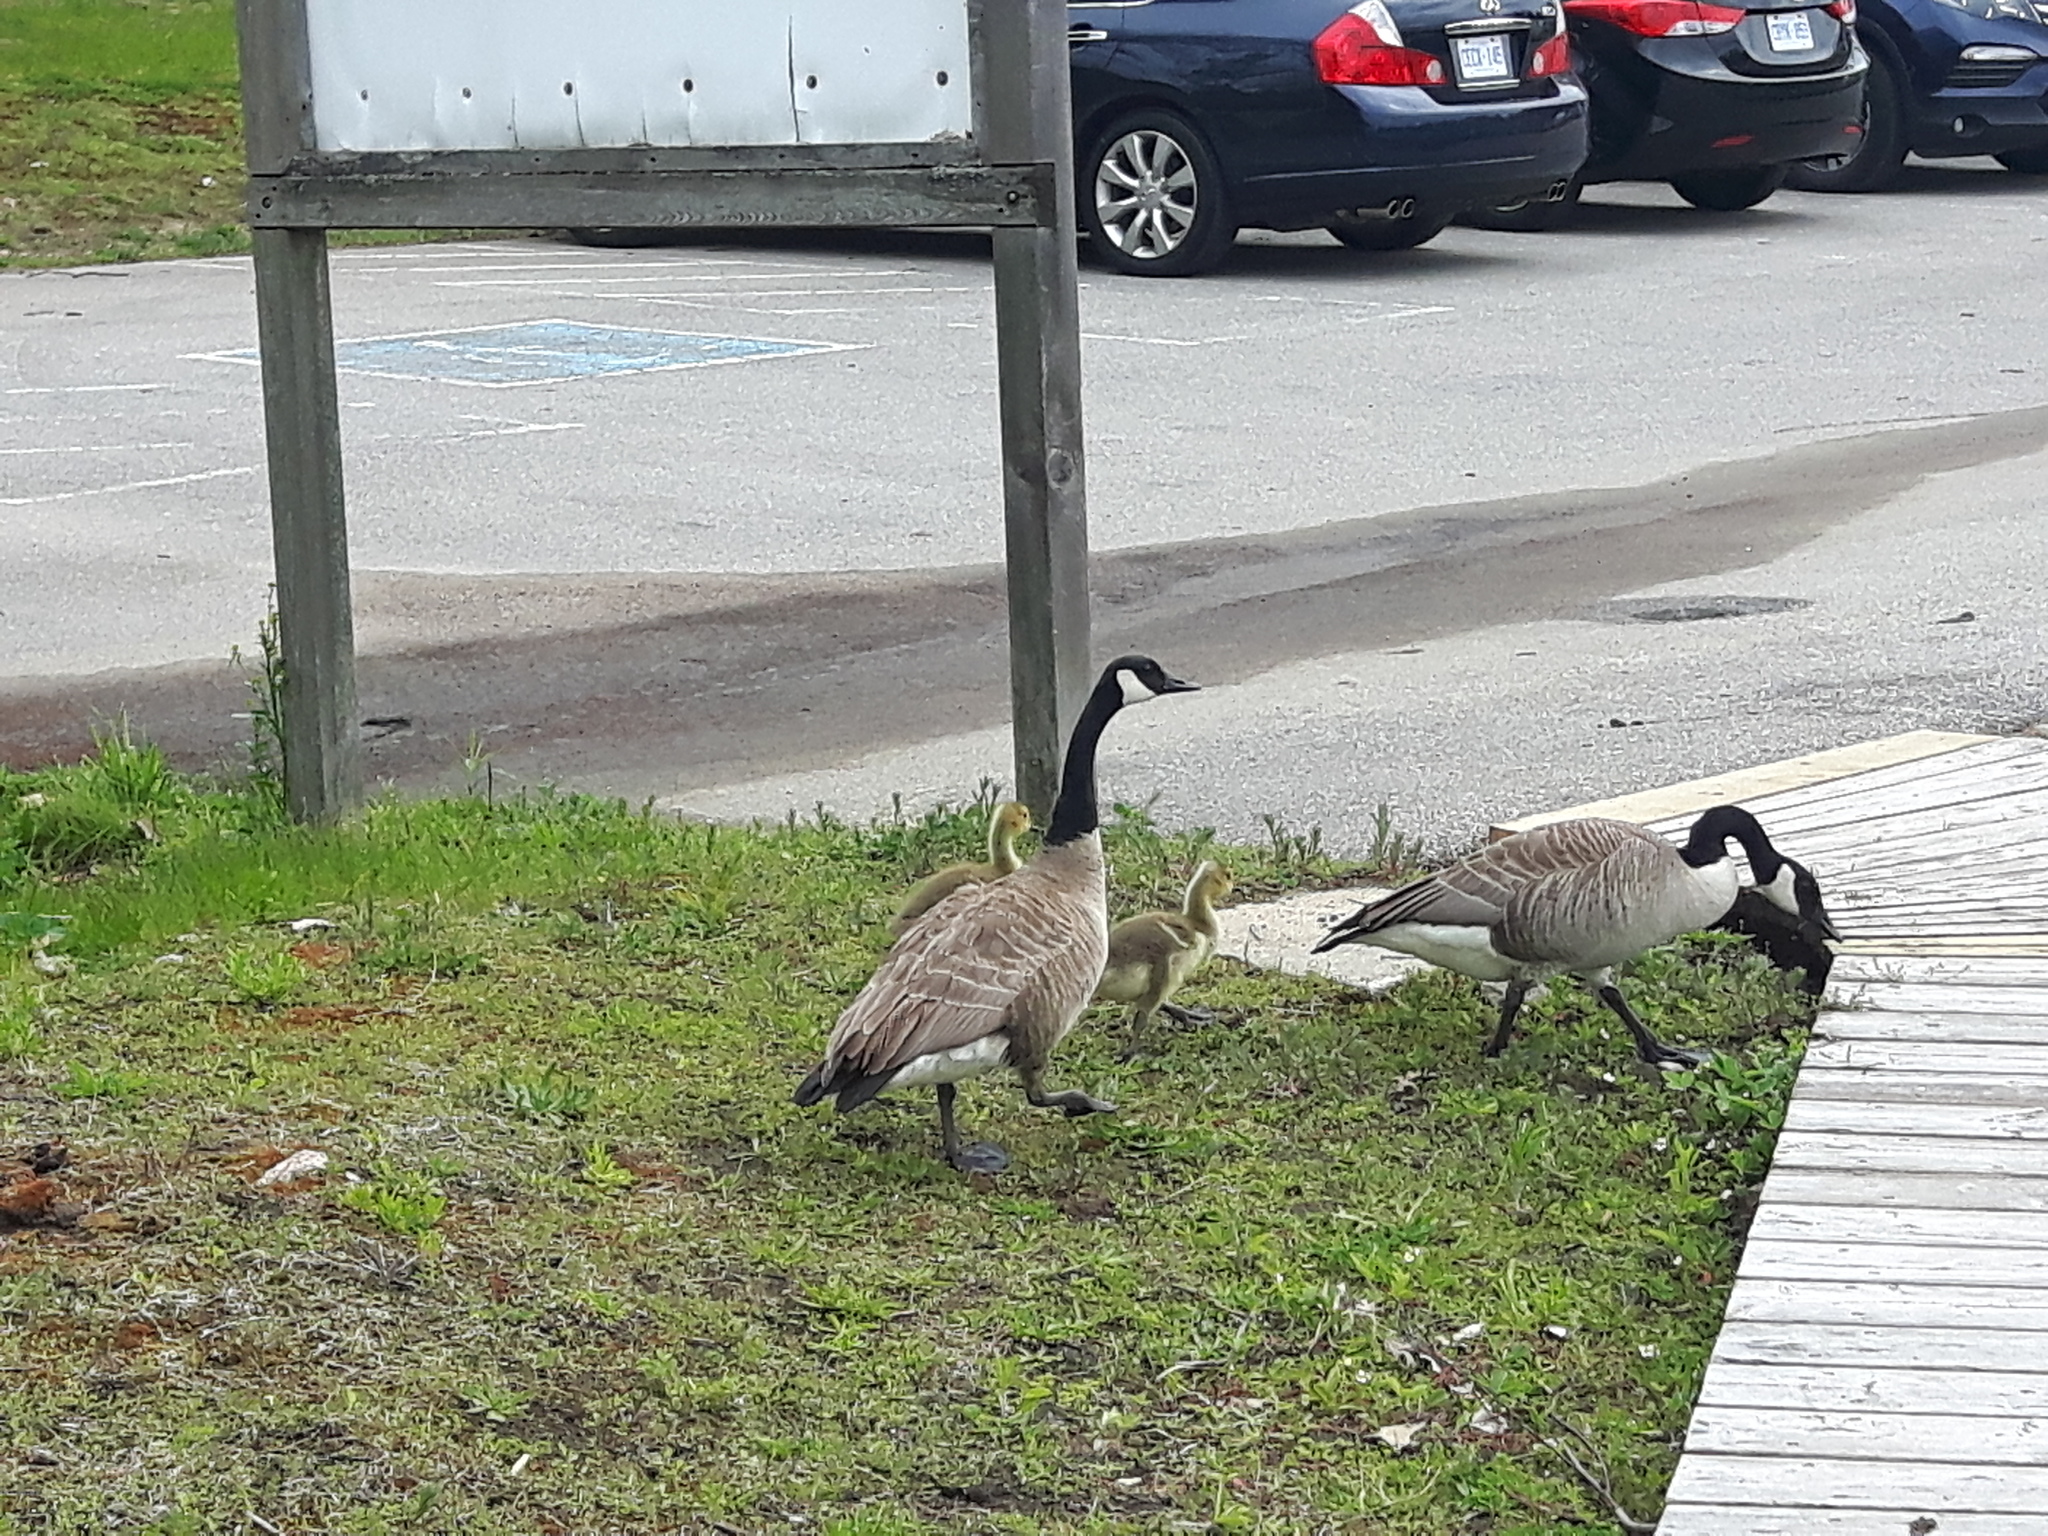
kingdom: Animalia
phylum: Chordata
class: Aves
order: Anseriformes
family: Anatidae
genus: Branta
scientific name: Branta canadensis
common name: Canada goose
